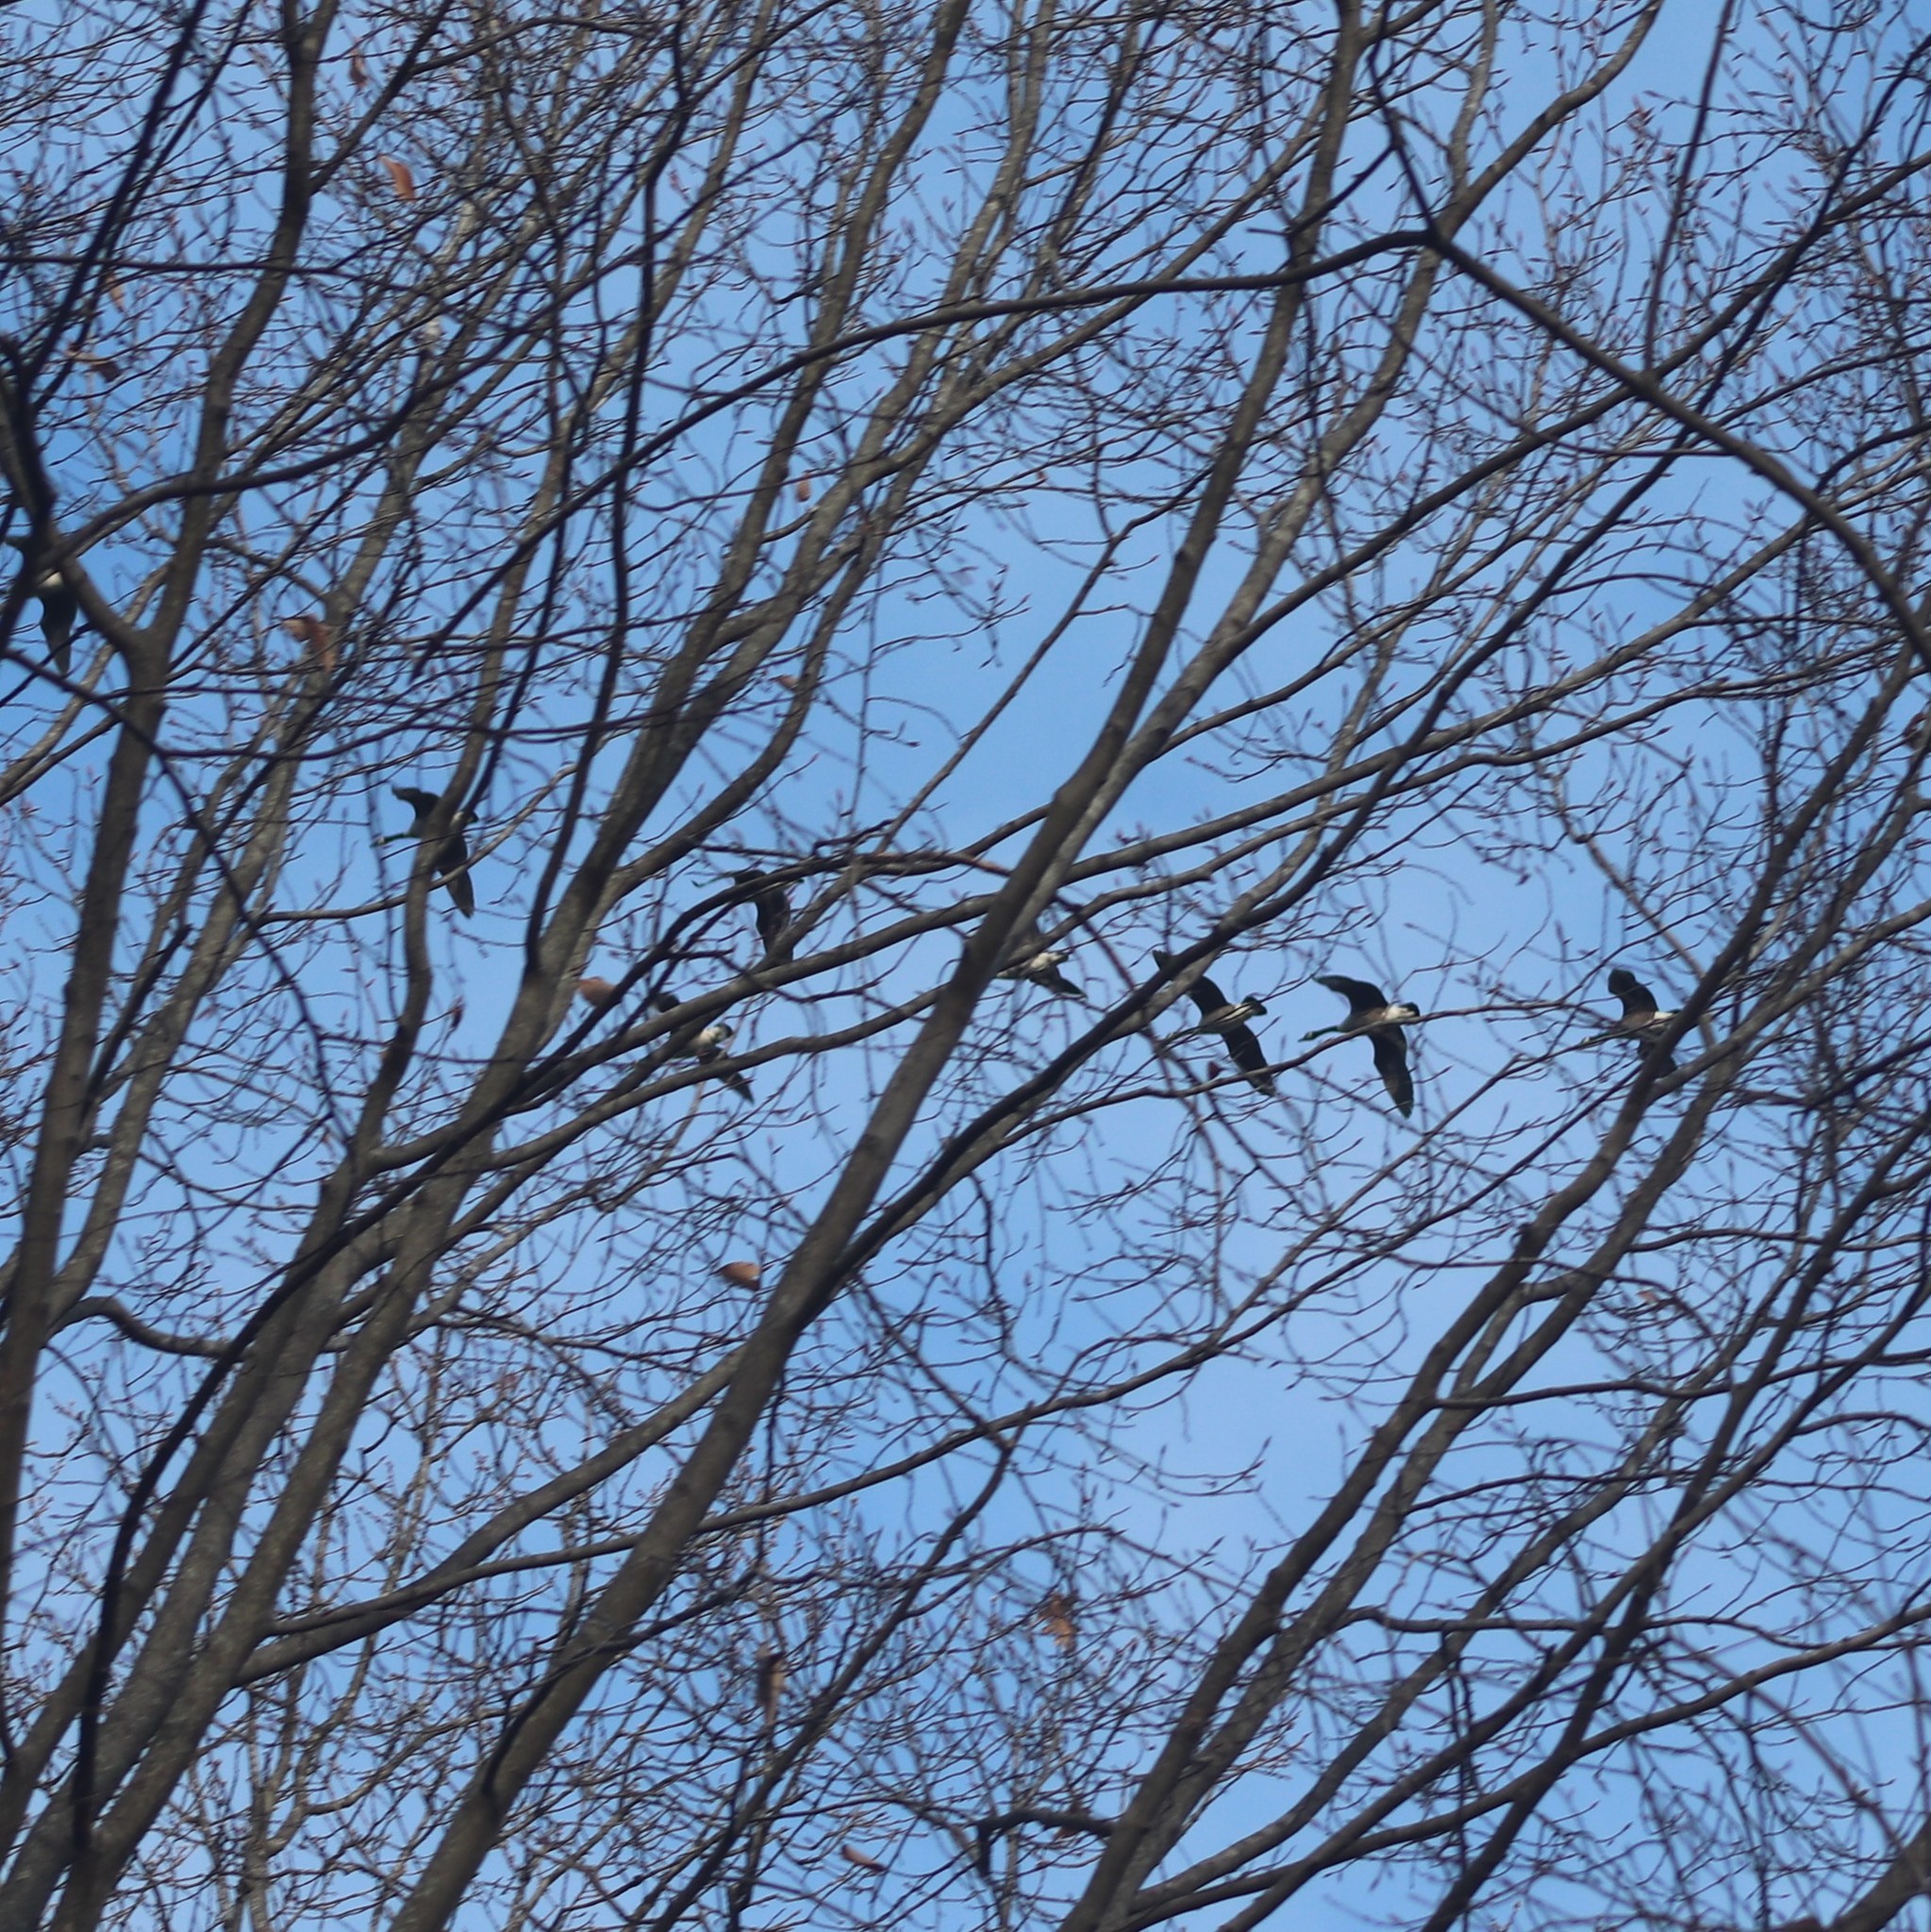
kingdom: Animalia
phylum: Chordata
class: Aves
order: Anseriformes
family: Anatidae
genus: Branta
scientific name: Branta canadensis
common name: Canada goose
